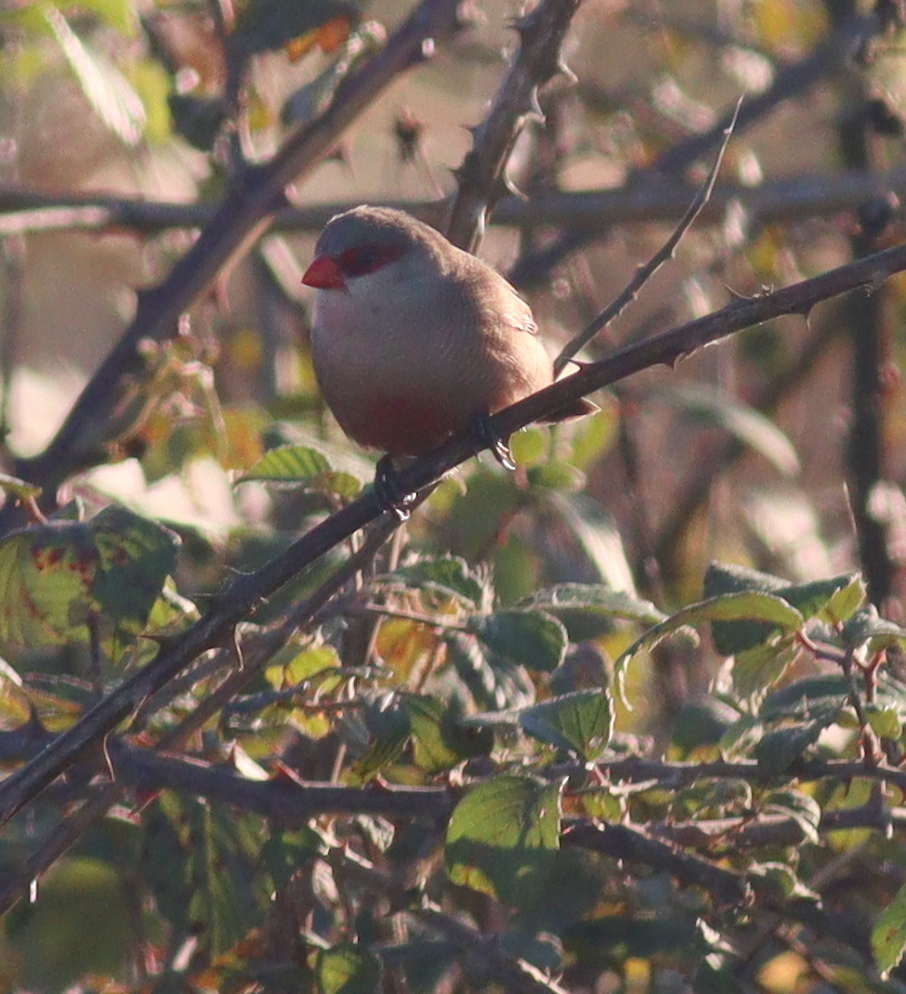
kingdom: Animalia
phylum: Chordata
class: Aves
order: Passeriformes
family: Estrildidae
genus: Estrilda
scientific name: Estrilda astrild
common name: Common waxbill
